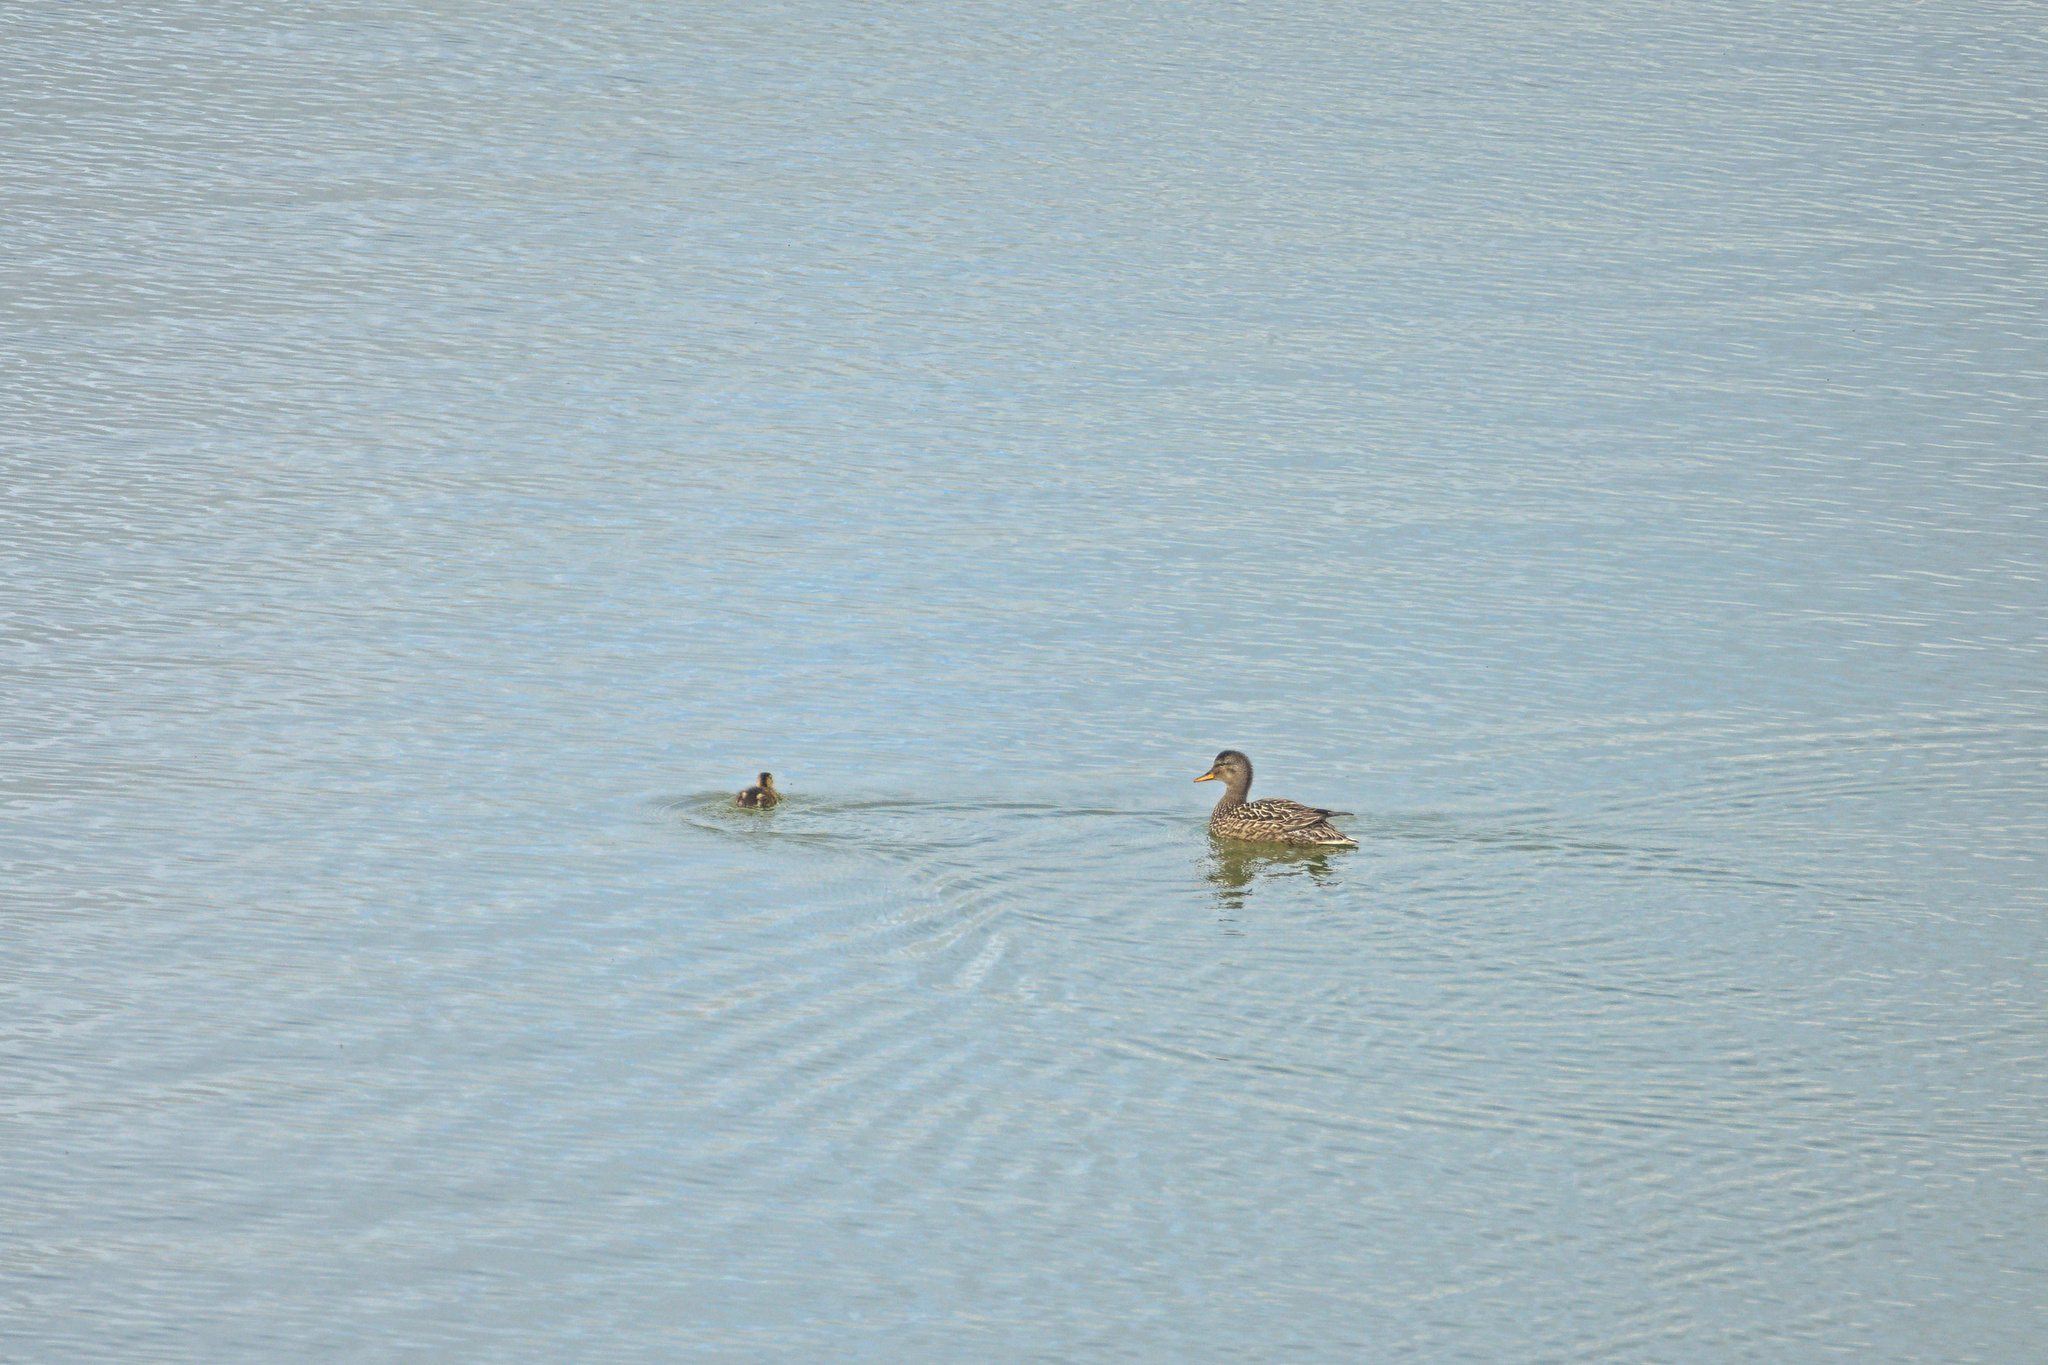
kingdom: Animalia
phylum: Chordata
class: Aves
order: Anseriformes
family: Anatidae
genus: Mareca
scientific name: Mareca strepera
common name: Gadwall
